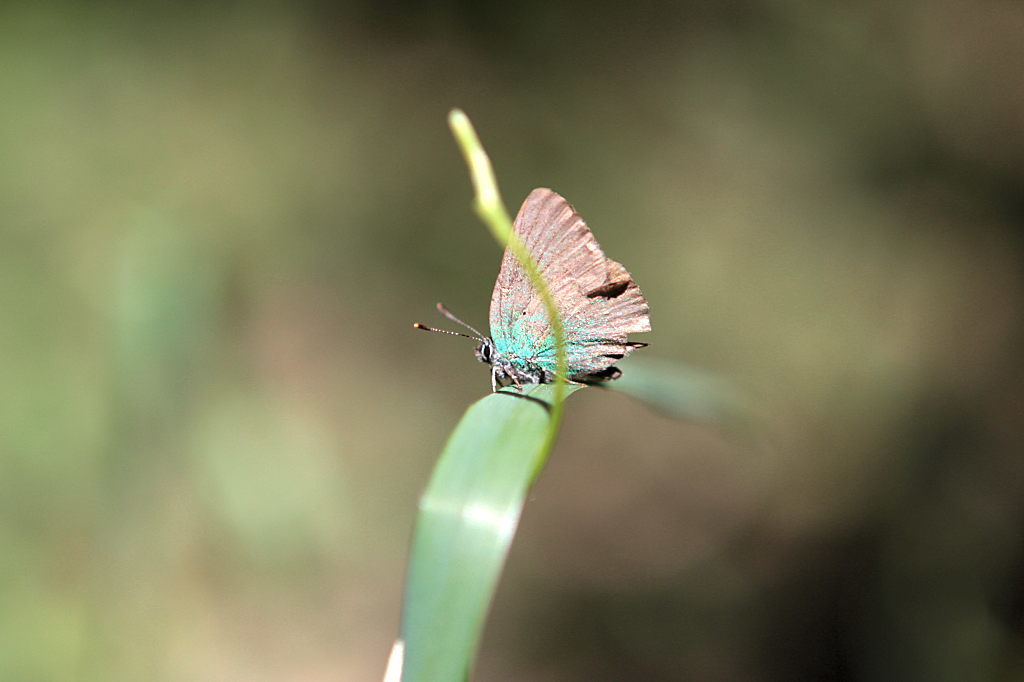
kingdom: Animalia
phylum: Arthropoda
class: Insecta
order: Lepidoptera
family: Lycaenidae
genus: Callophrys
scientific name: Callophrys rubi
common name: Green hairstreak
